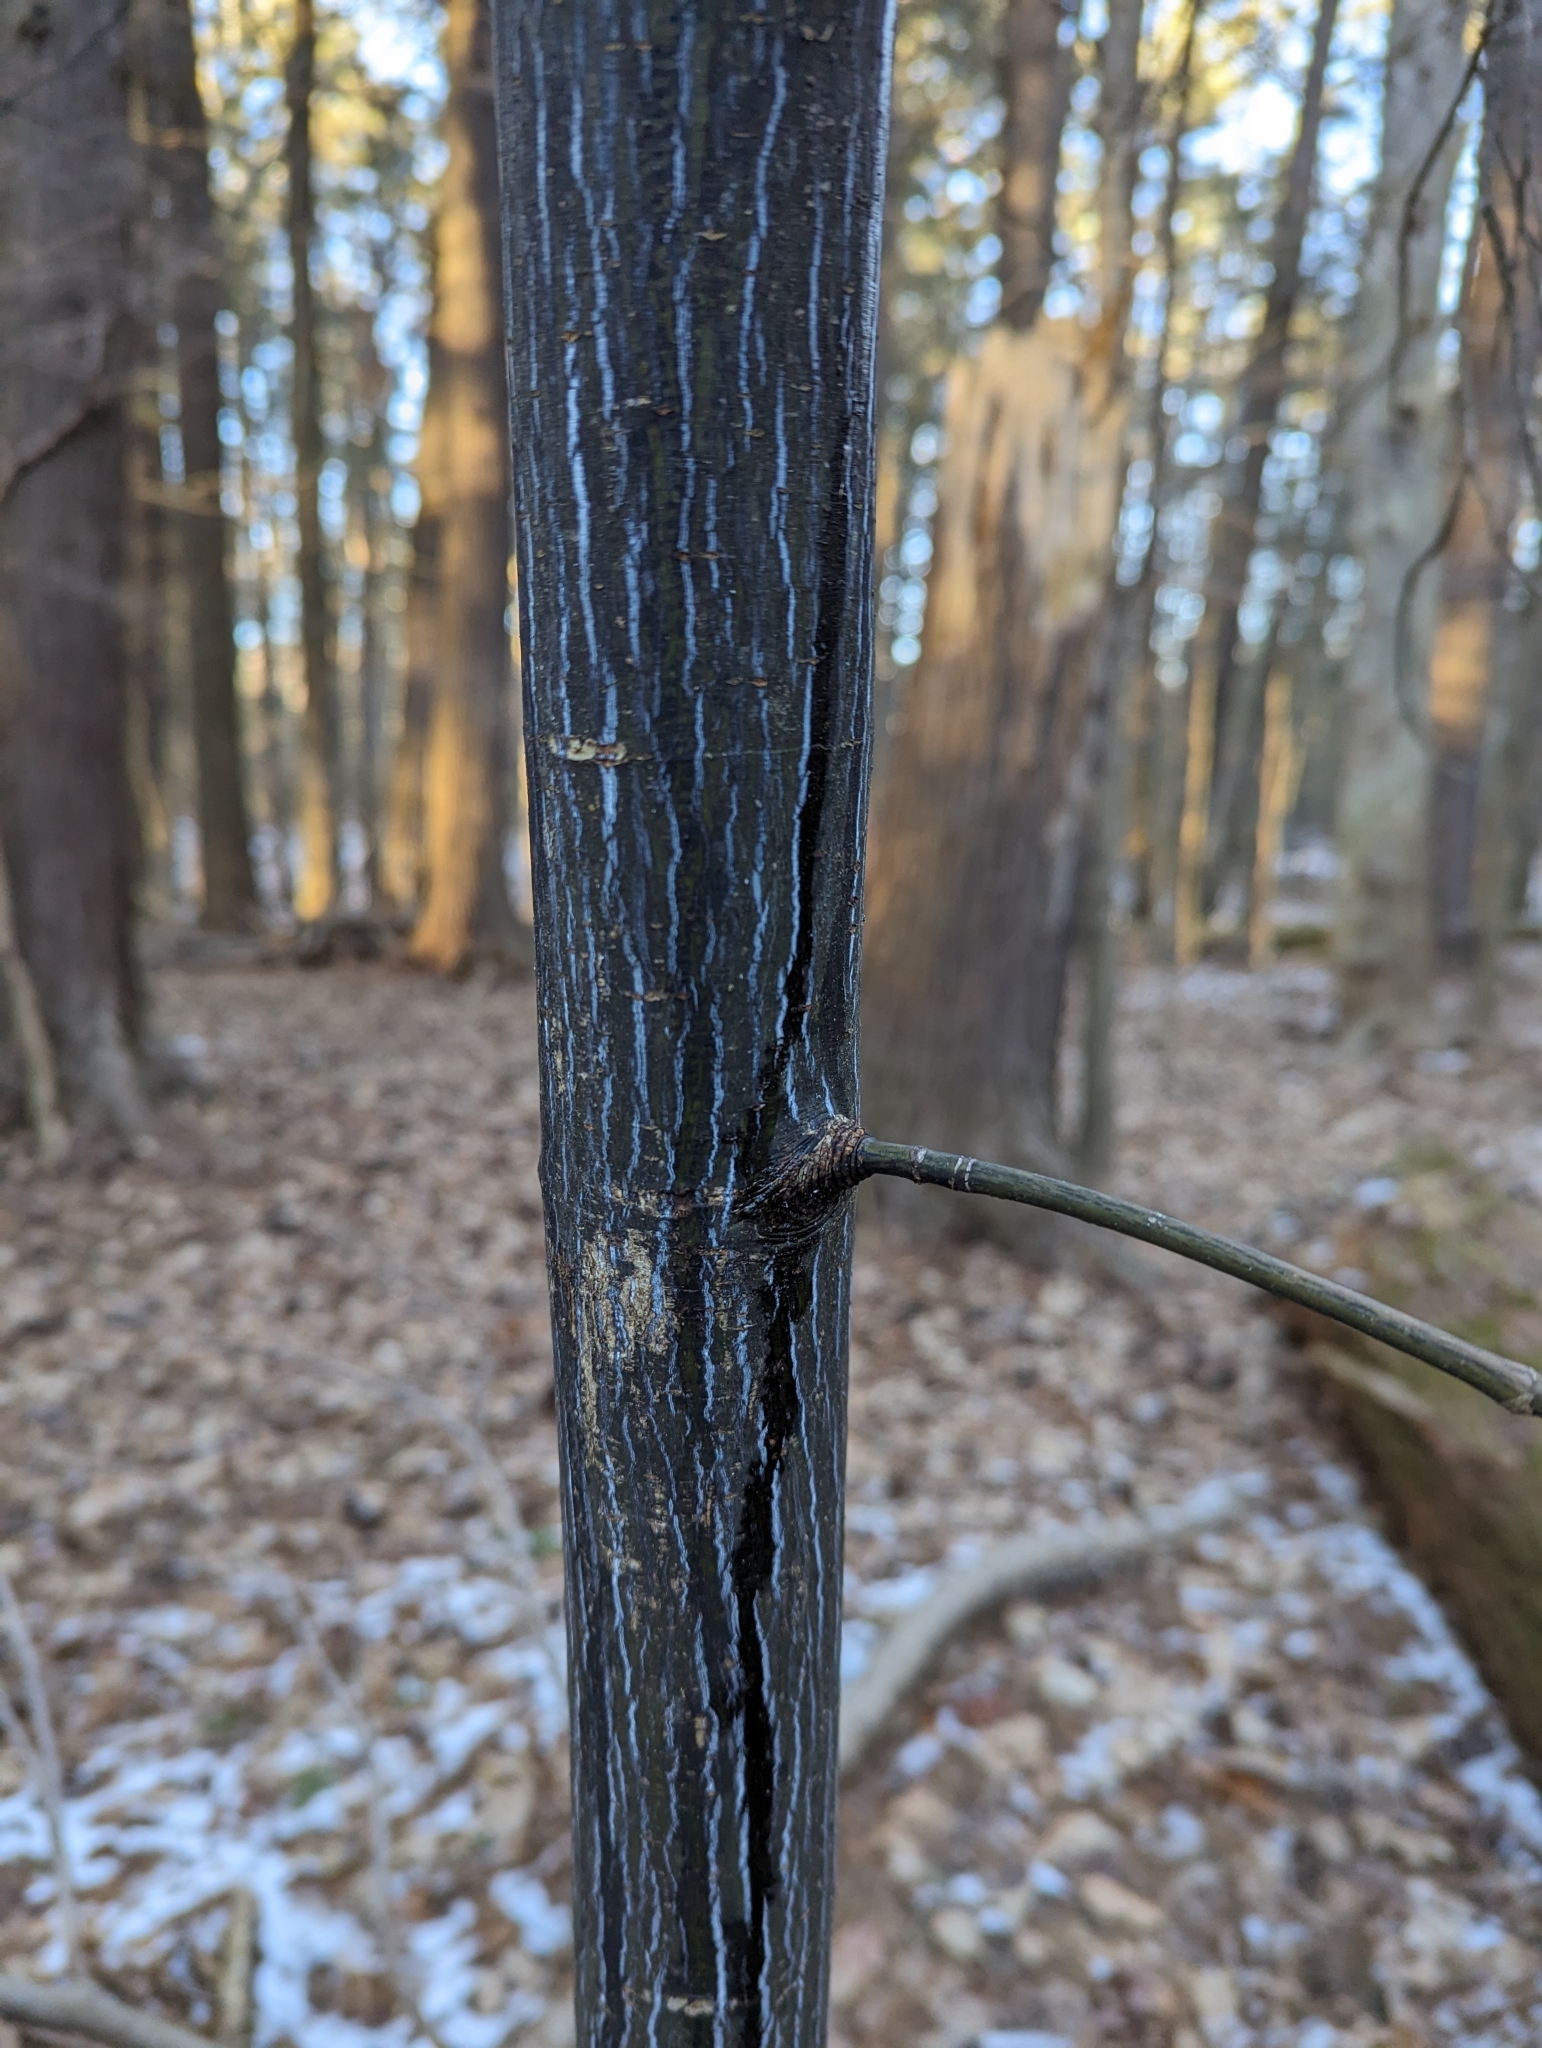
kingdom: Plantae
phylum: Tracheophyta
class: Magnoliopsida
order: Sapindales
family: Sapindaceae
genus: Acer
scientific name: Acer pensylvanicum
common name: Moosewood
